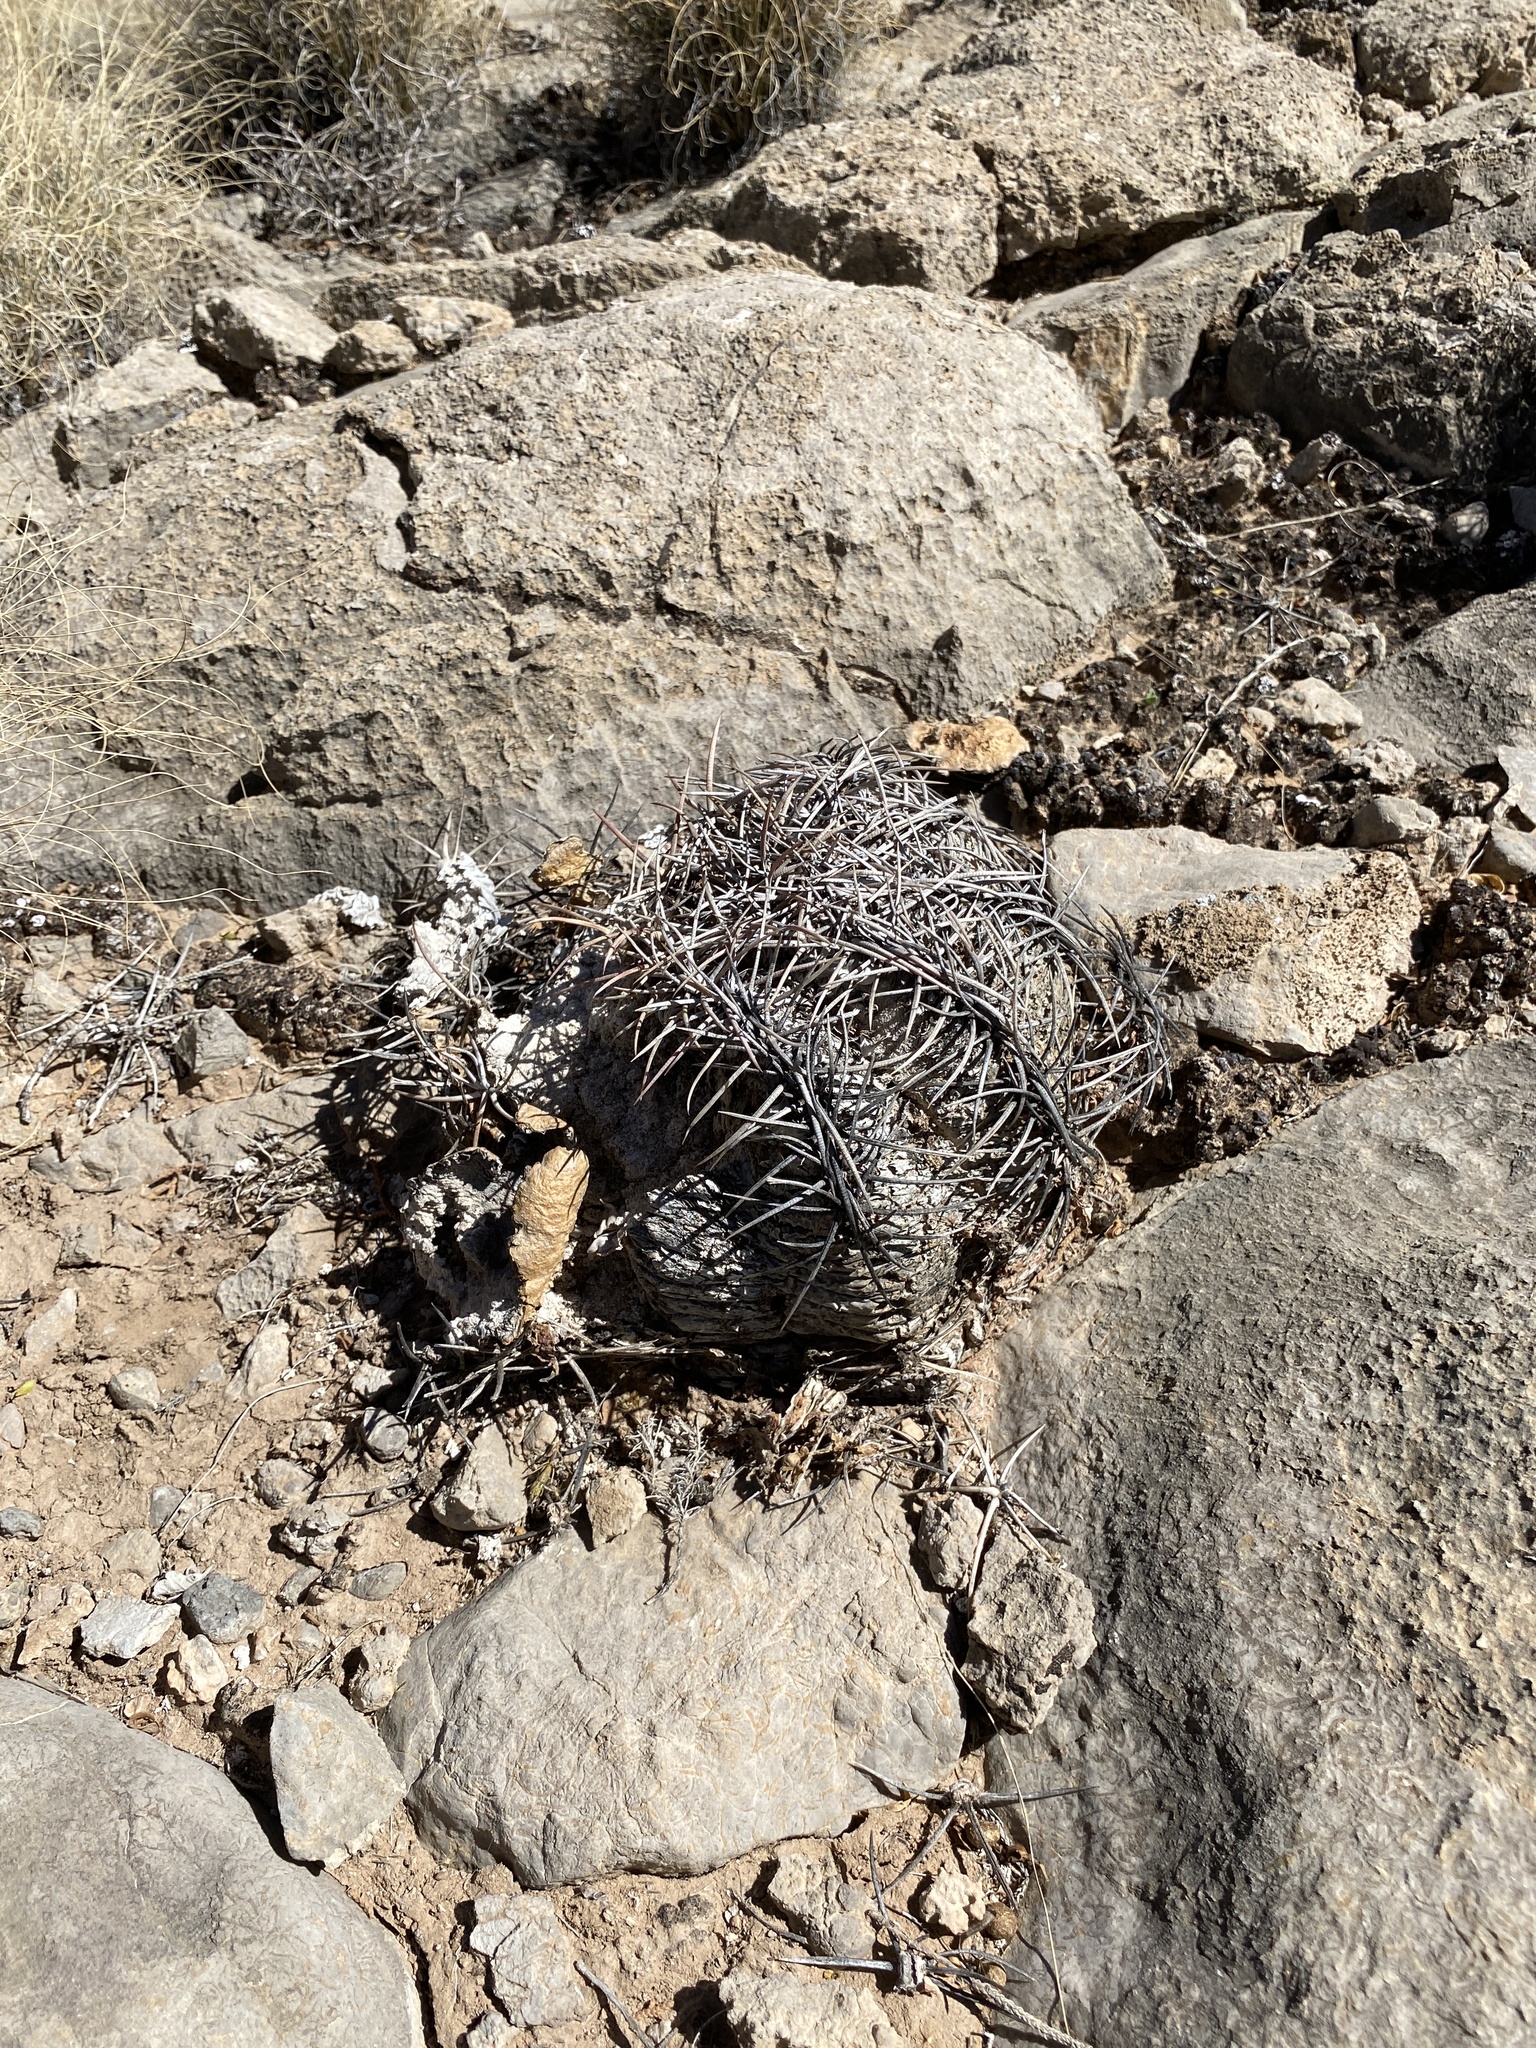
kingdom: Plantae
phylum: Tracheophyta
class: Magnoliopsida
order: Caryophyllales
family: Cactaceae
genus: Echinocactus
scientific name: Echinocactus horizonthalonius
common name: Devilshead
